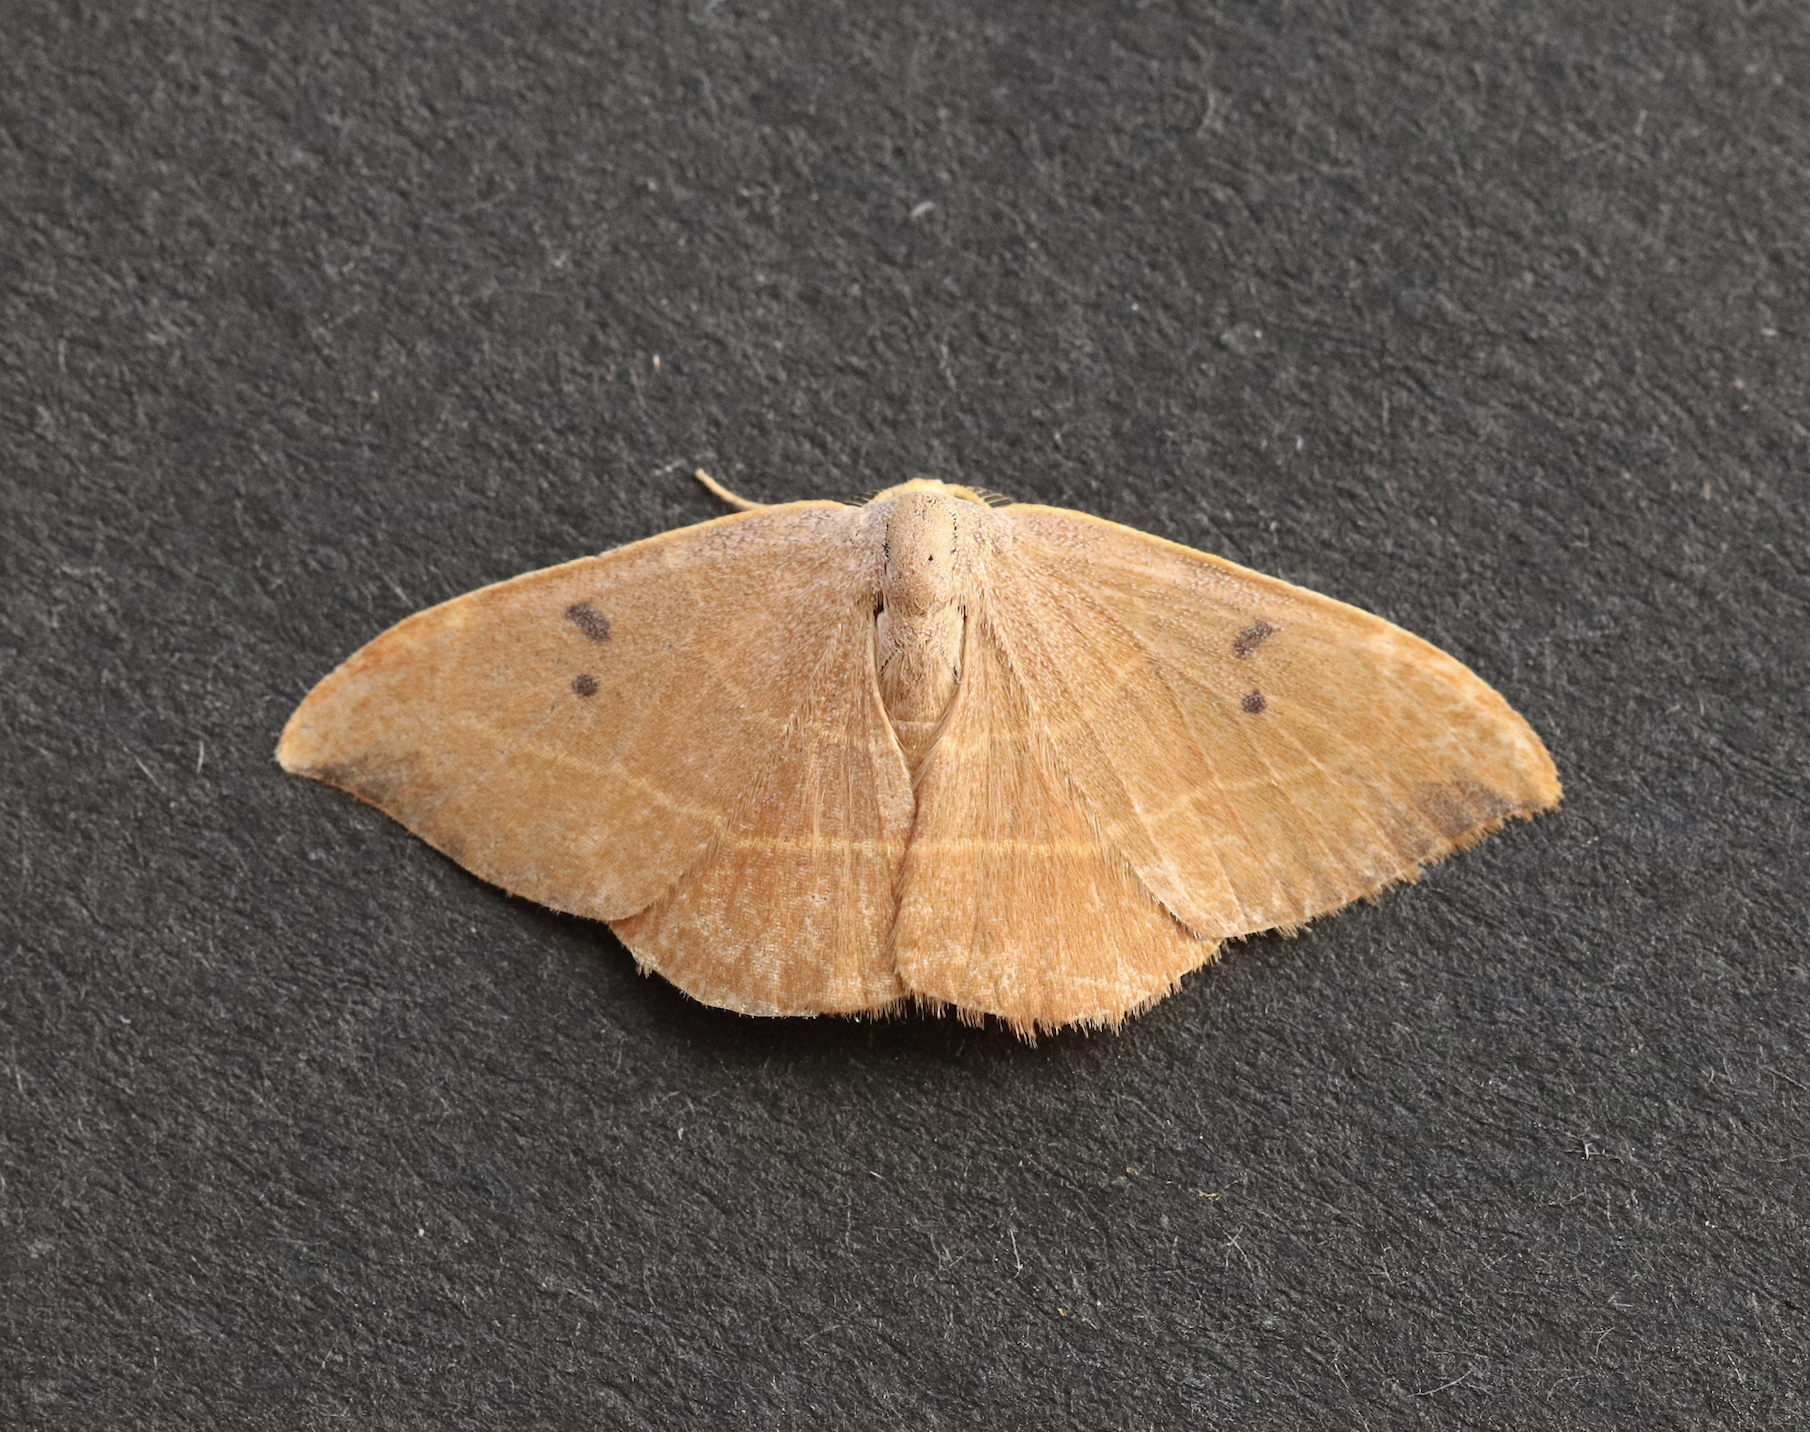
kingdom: Animalia
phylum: Arthropoda
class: Insecta
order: Lepidoptera
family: Drepanidae
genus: Watsonalla
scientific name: Watsonalla binaria
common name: Oak hook-tip
